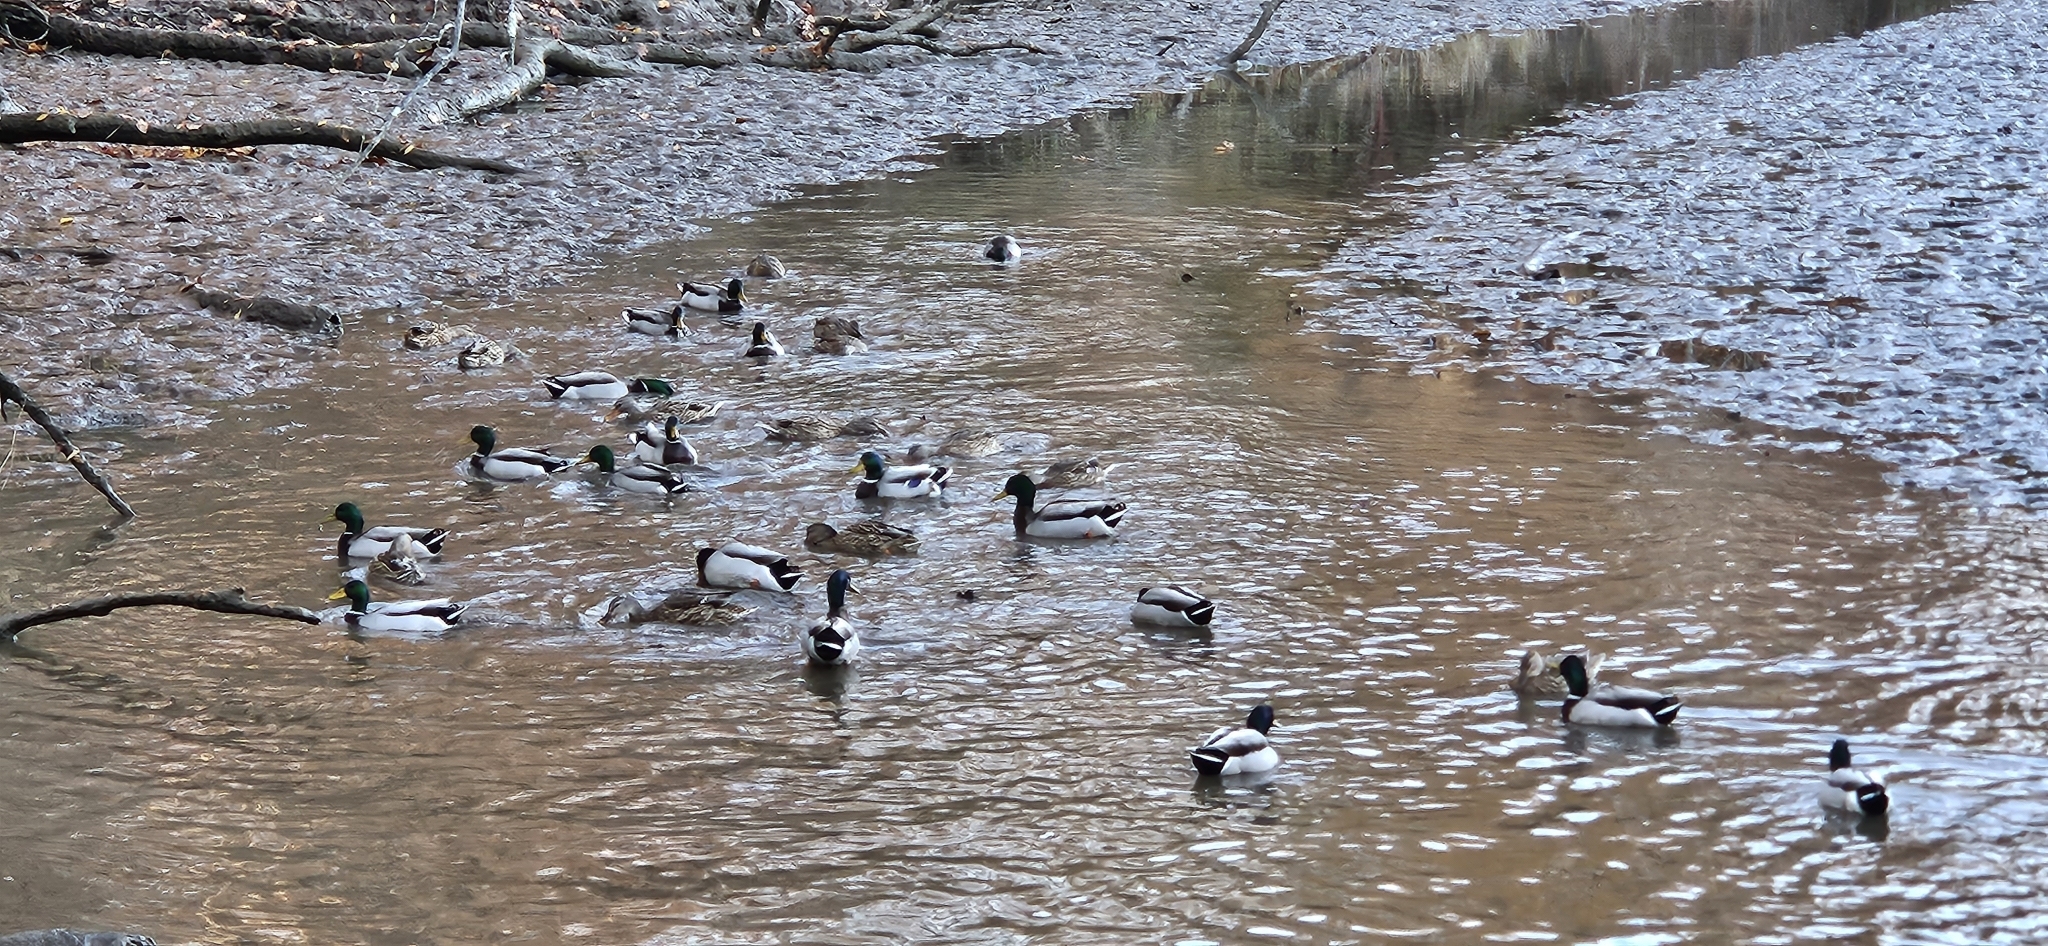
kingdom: Animalia
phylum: Chordata
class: Aves
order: Anseriformes
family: Anatidae
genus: Anas
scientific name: Anas platyrhynchos
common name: Mallard
